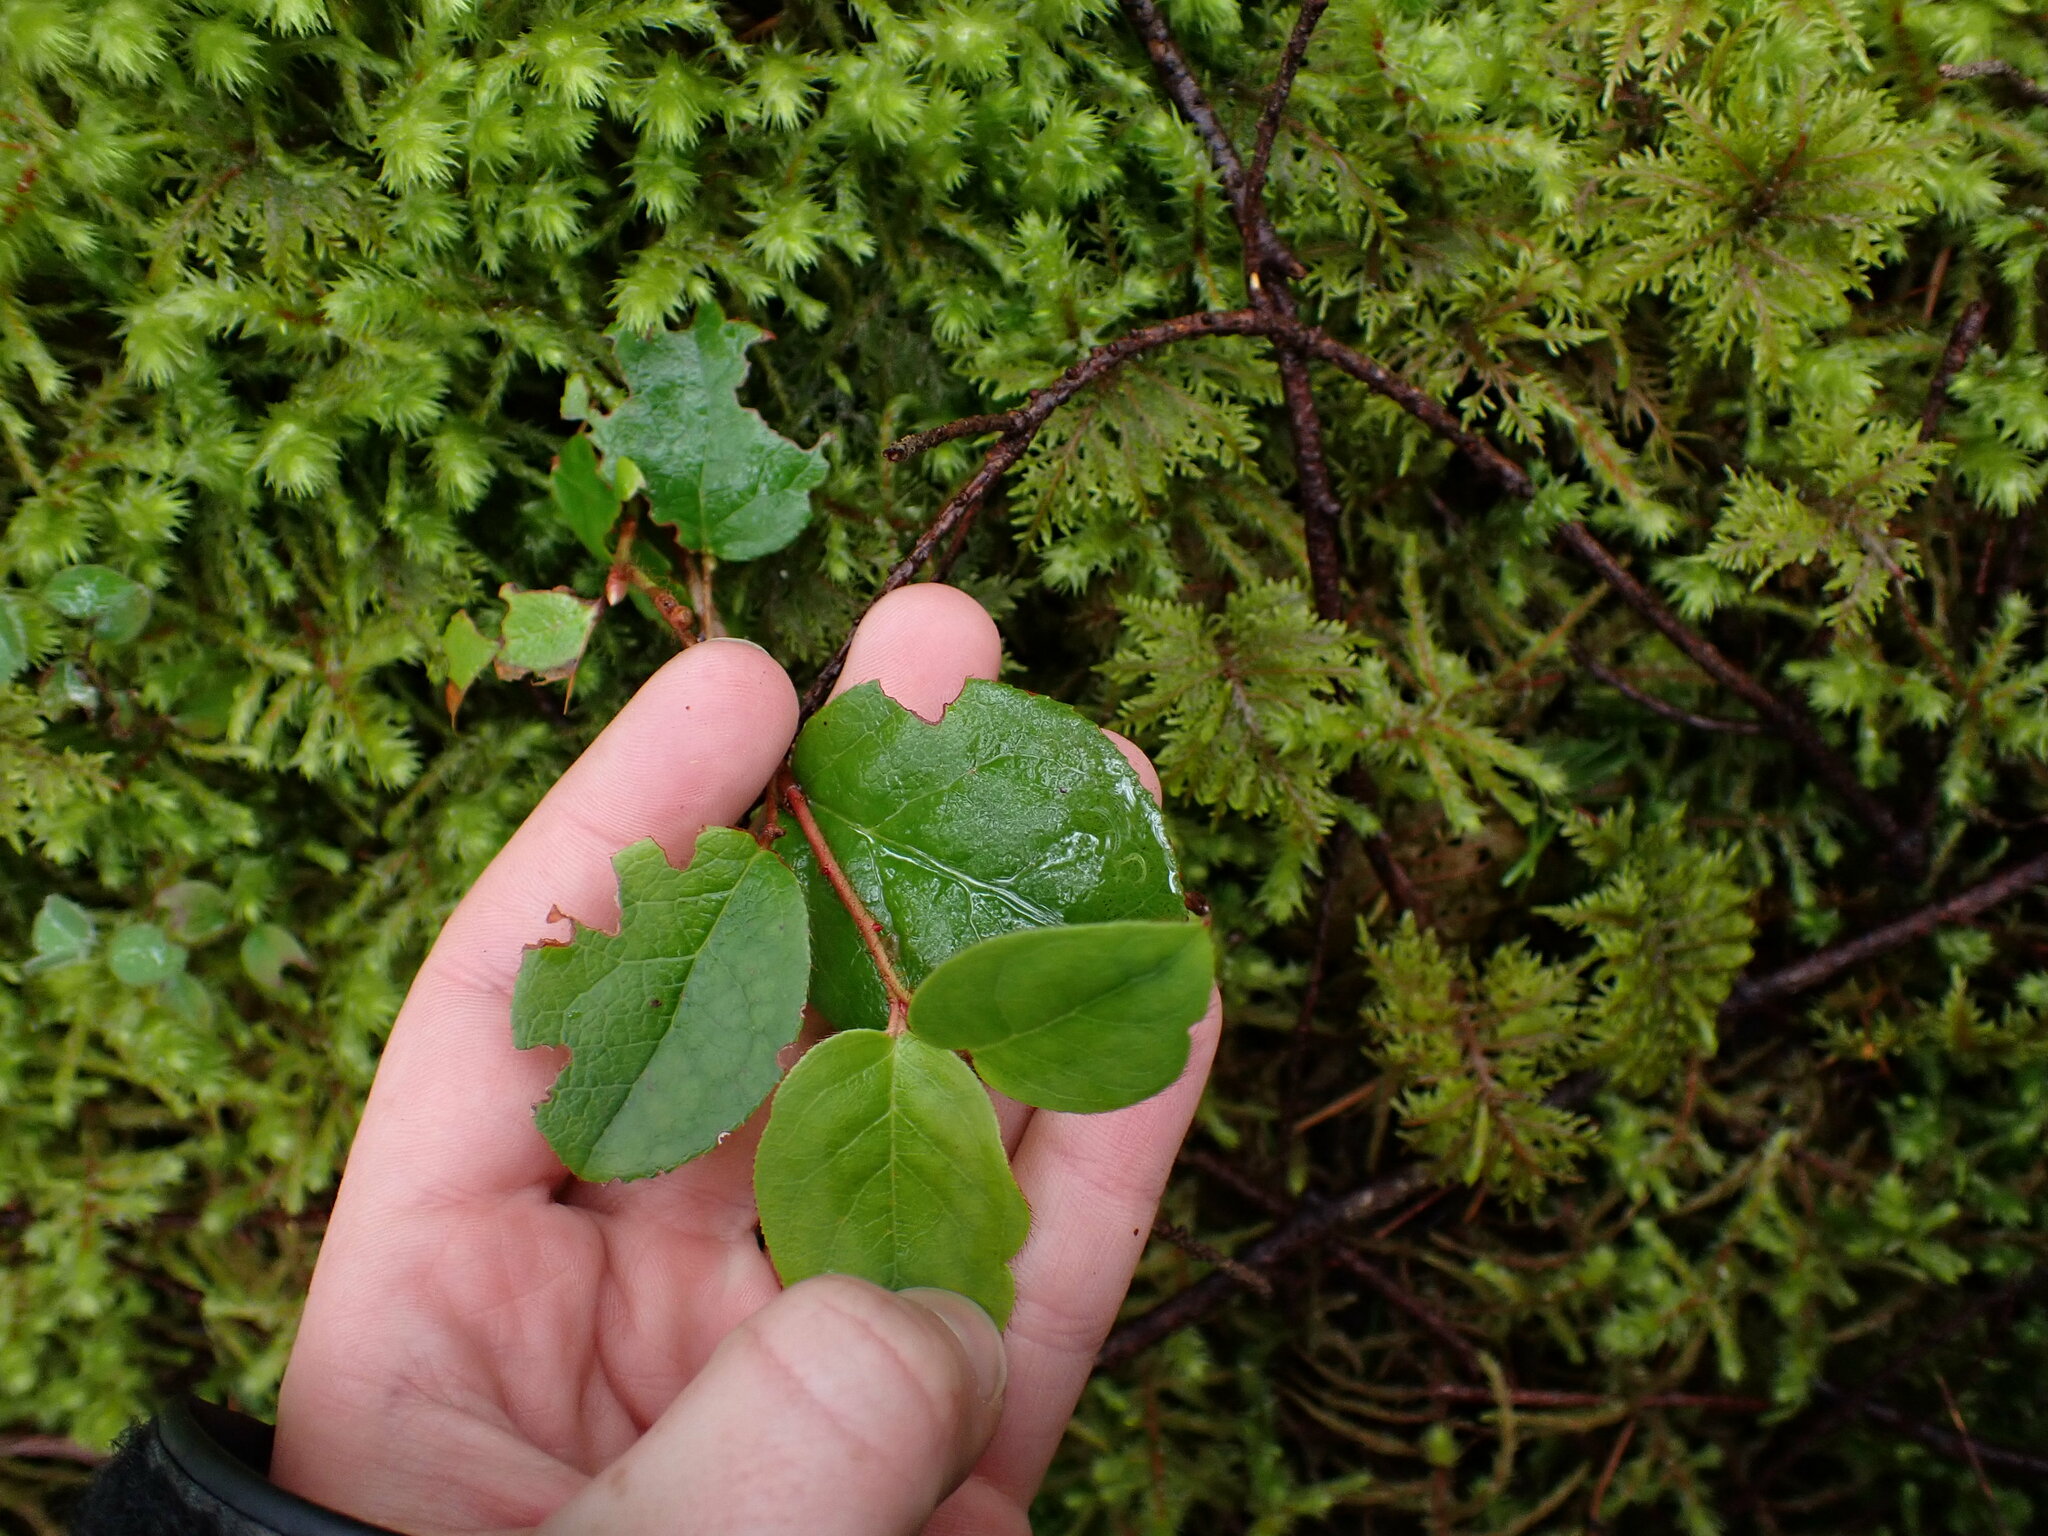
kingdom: Plantae
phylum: Tracheophyta
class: Magnoliopsida
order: Ericales
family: Ericaceae
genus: Gaultheria
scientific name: Gaultheria shallon
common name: Shallon
